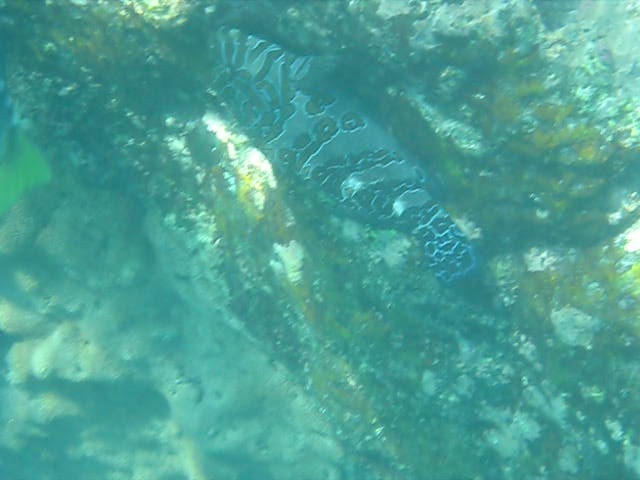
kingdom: Animalia
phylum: Chordata
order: Perciformes
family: Cirrhitidae
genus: Cirrhitus
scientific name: Cirrhitus rivulatus
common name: Giant hawkfish
